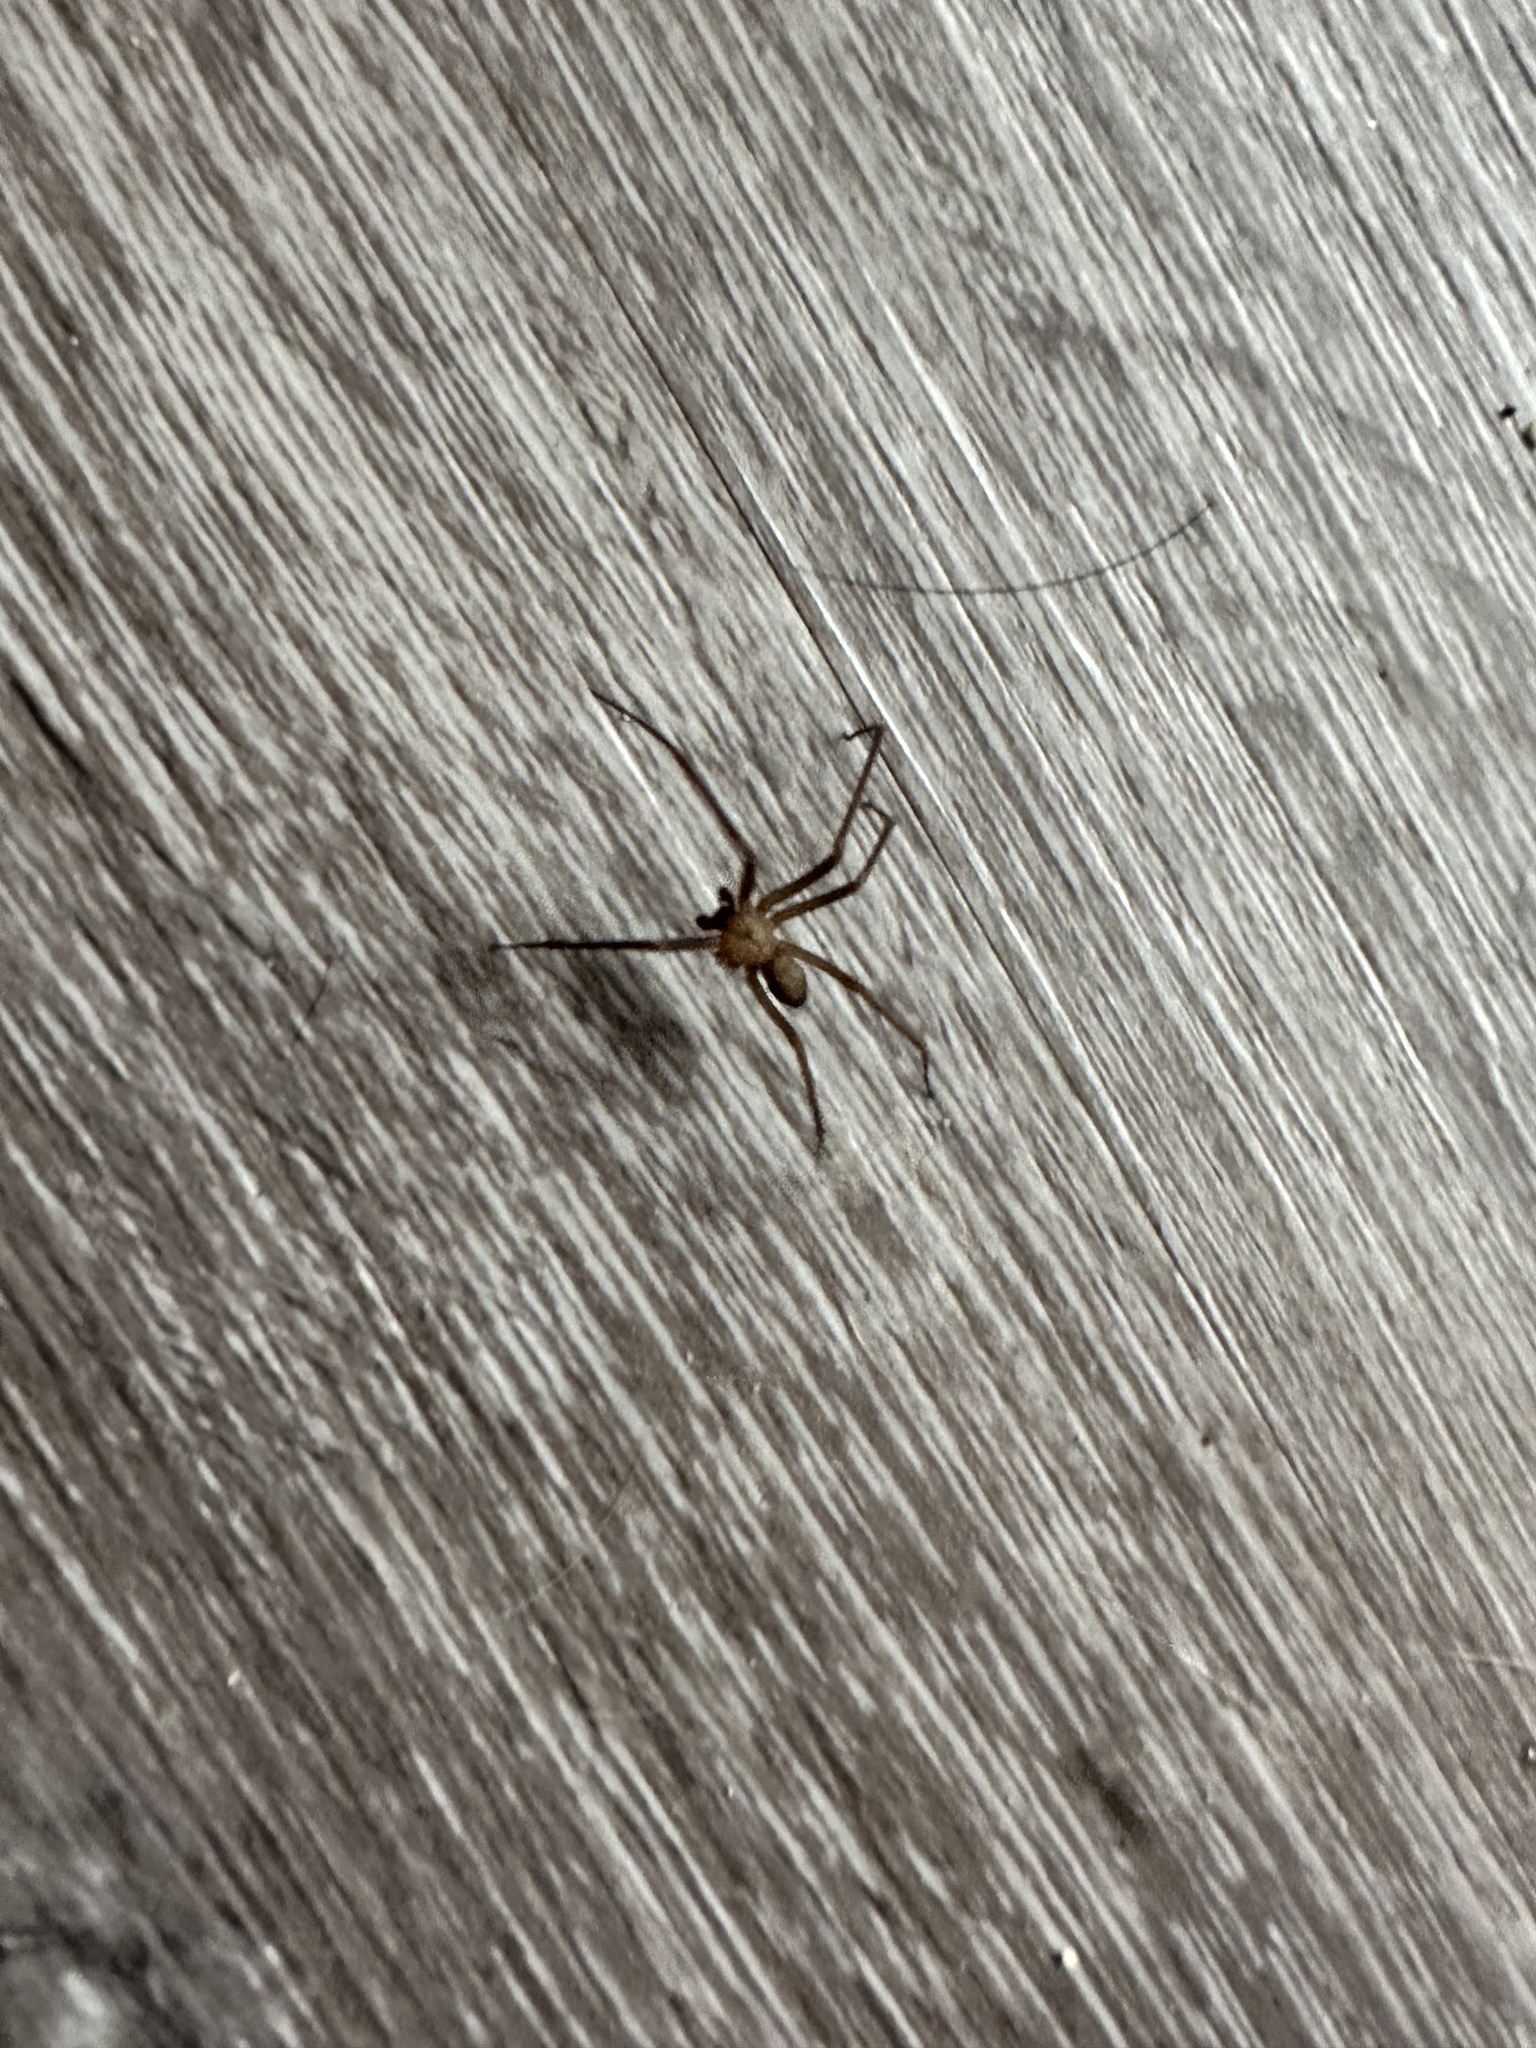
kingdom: Animalia
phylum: Arthropoda
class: Arachnida
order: Araneae
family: Sicariidae
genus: Loxosceles
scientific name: Loxosceles reclusa
